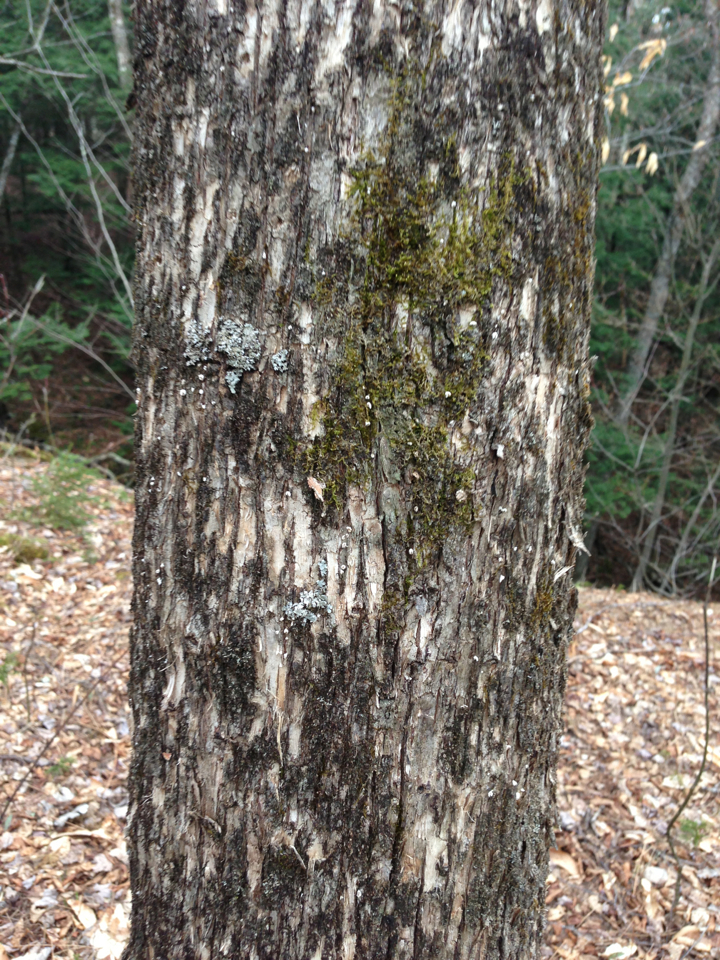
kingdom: Plantae
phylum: Tracheophyta
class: Magnoliopsida
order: Fagales
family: Betulaceae
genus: Ostrya
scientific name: Ostrya virginiana
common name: Ironwood
